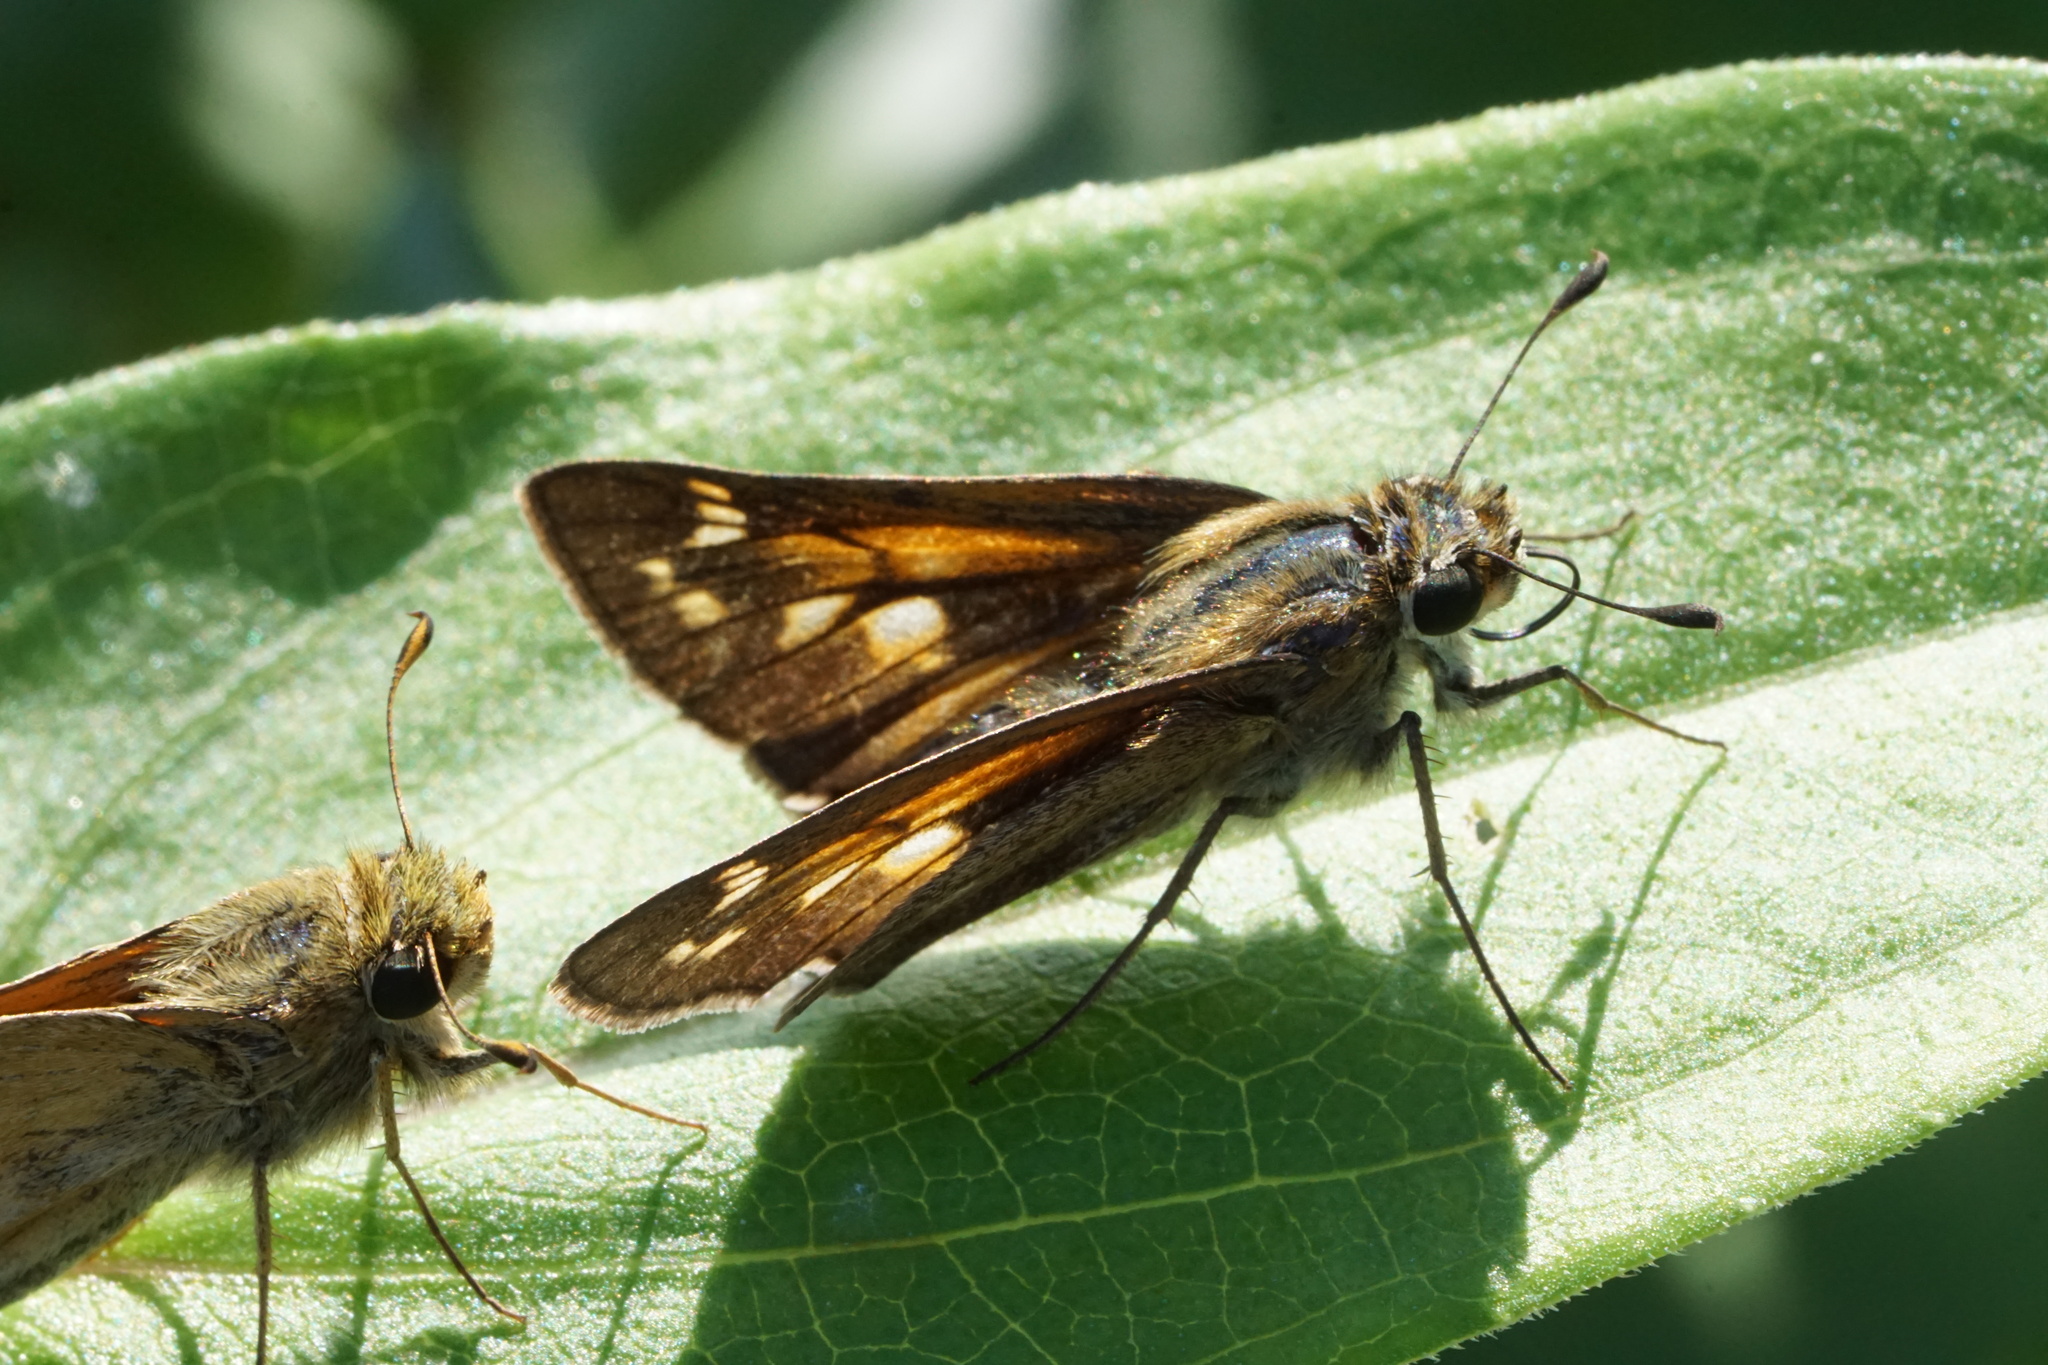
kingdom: Animalia
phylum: Arthropoda
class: Insecta
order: Lepidoptera
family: Hesperiidae
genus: Atalopedes
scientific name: Atalopedes
